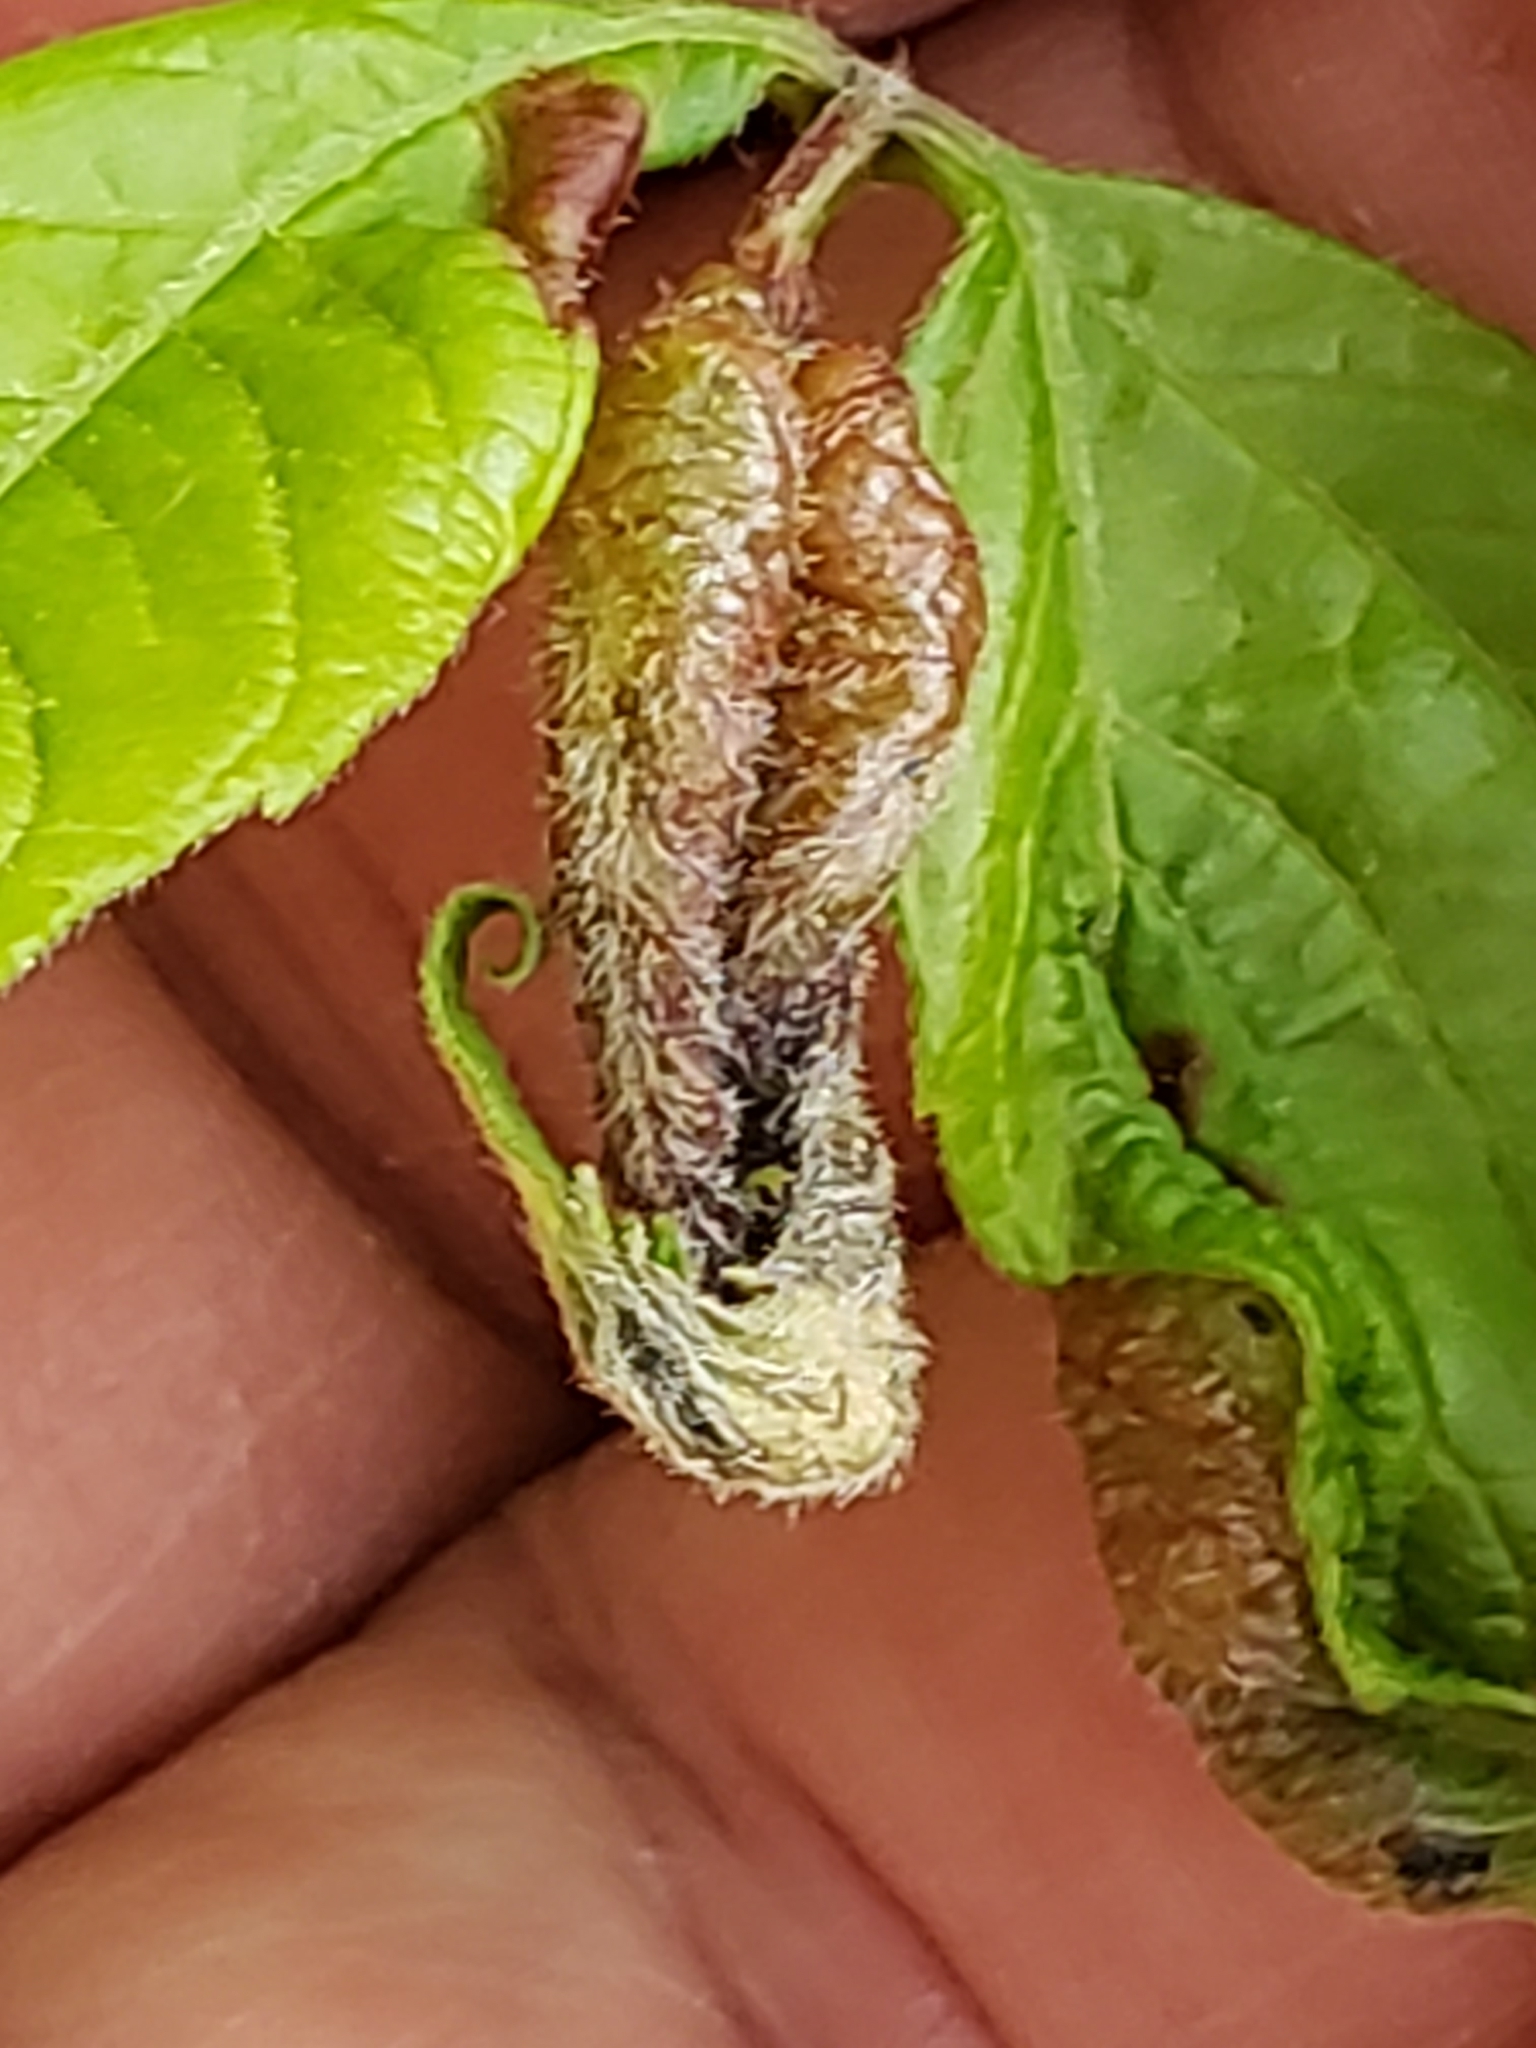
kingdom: Animalia
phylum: Arthropoda
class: Insecta
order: Diptera
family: Cecidomyiidae
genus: Contarinia
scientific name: Contarinia negundinis
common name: Boxelder budgall midge
